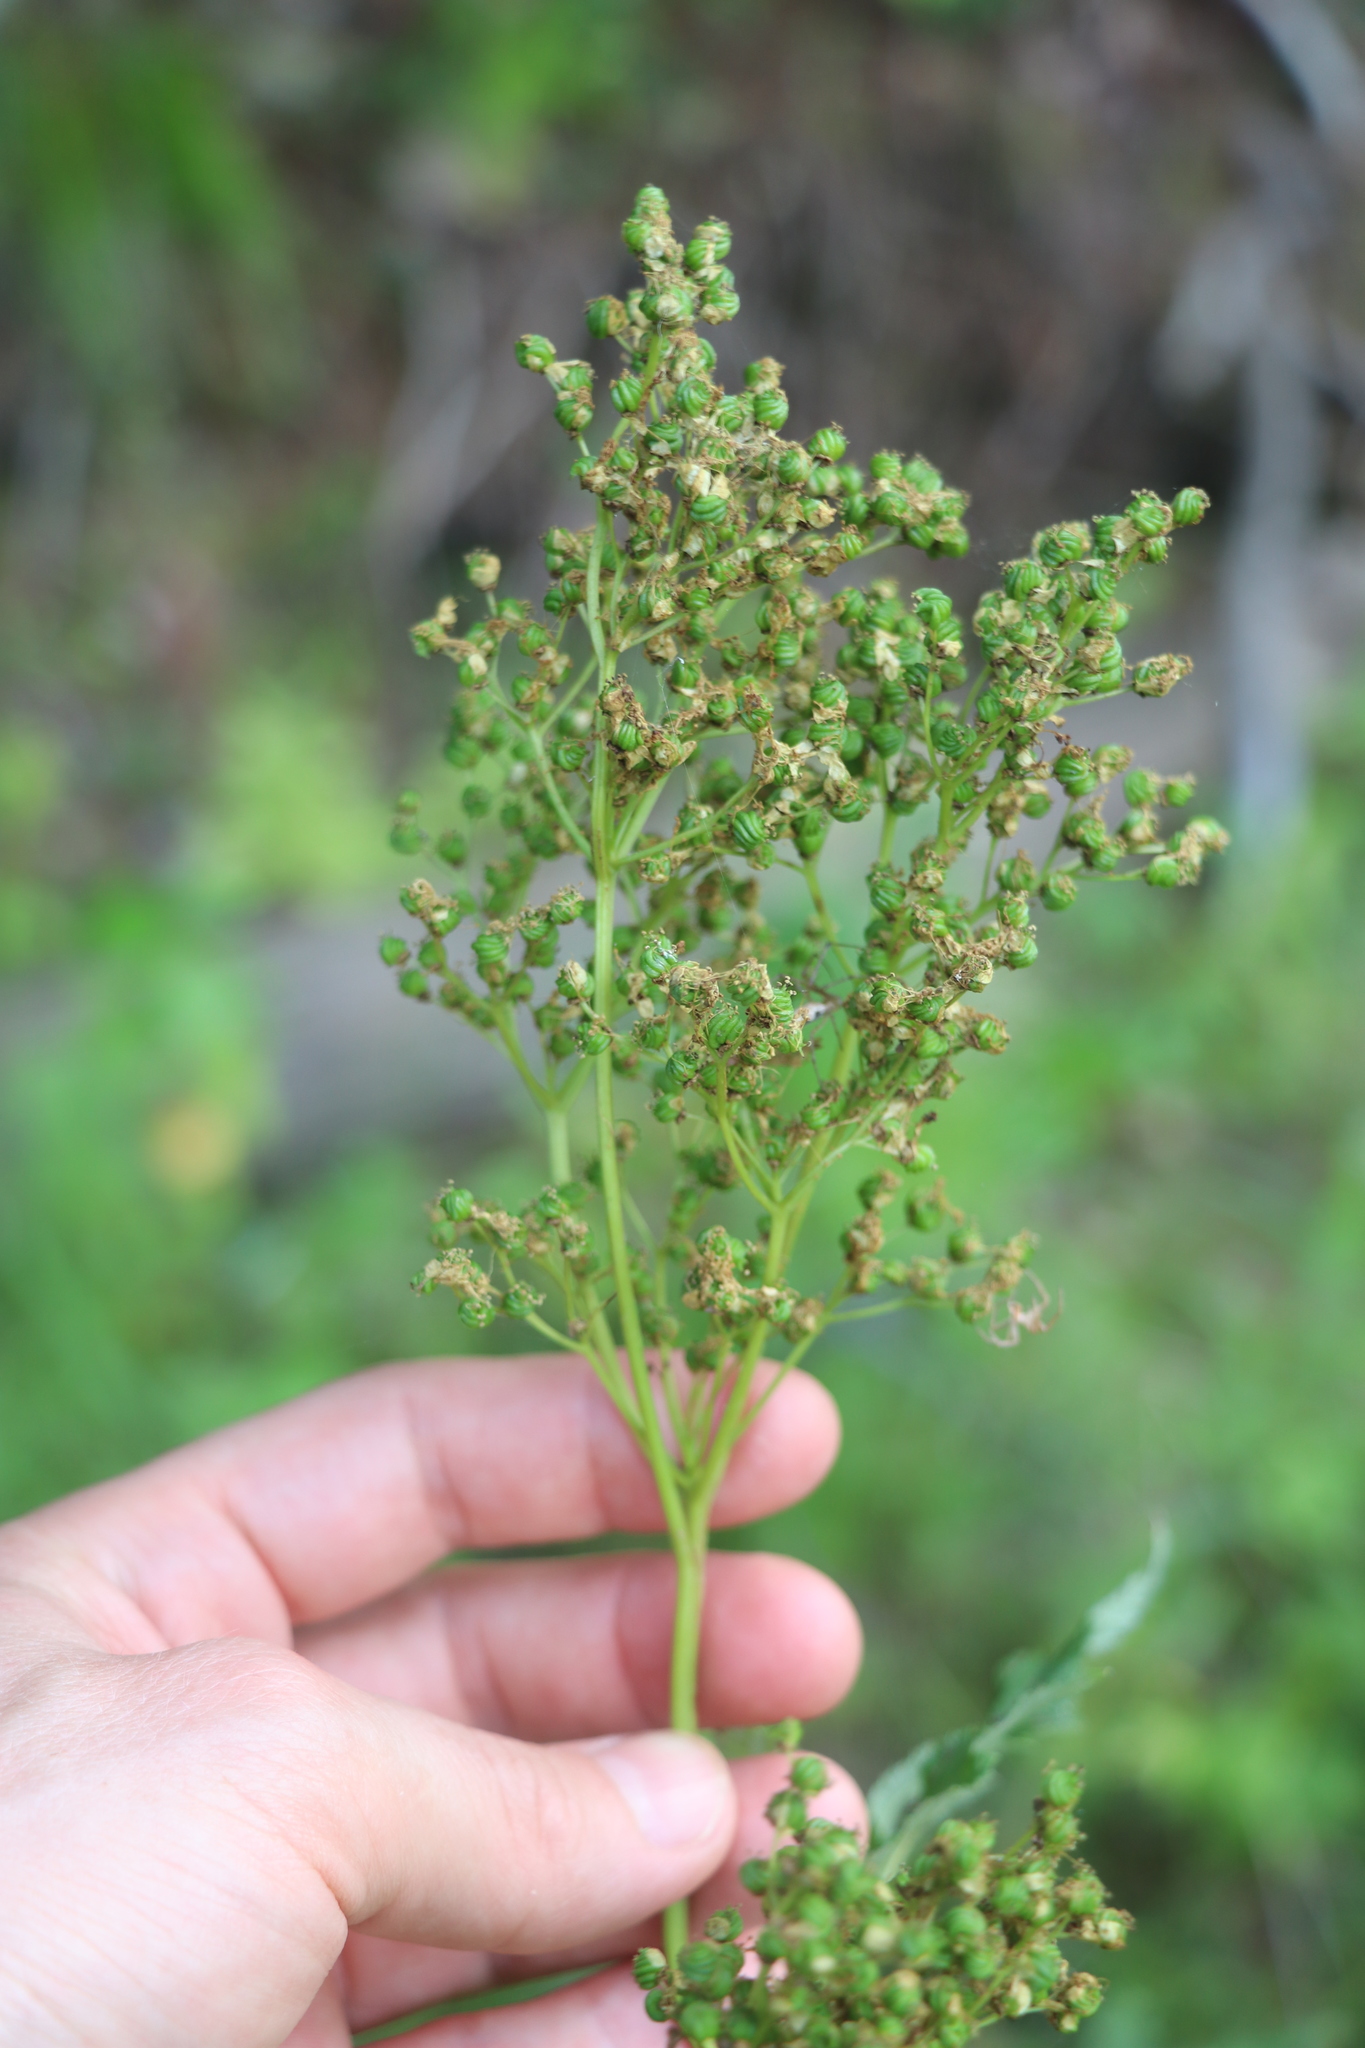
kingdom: Plantae
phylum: Tracheophyta
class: Magnoliopsida
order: Rosales
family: Rosaceae
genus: Filipendula
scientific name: Filipendula ulmaria
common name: Meadowsweet
